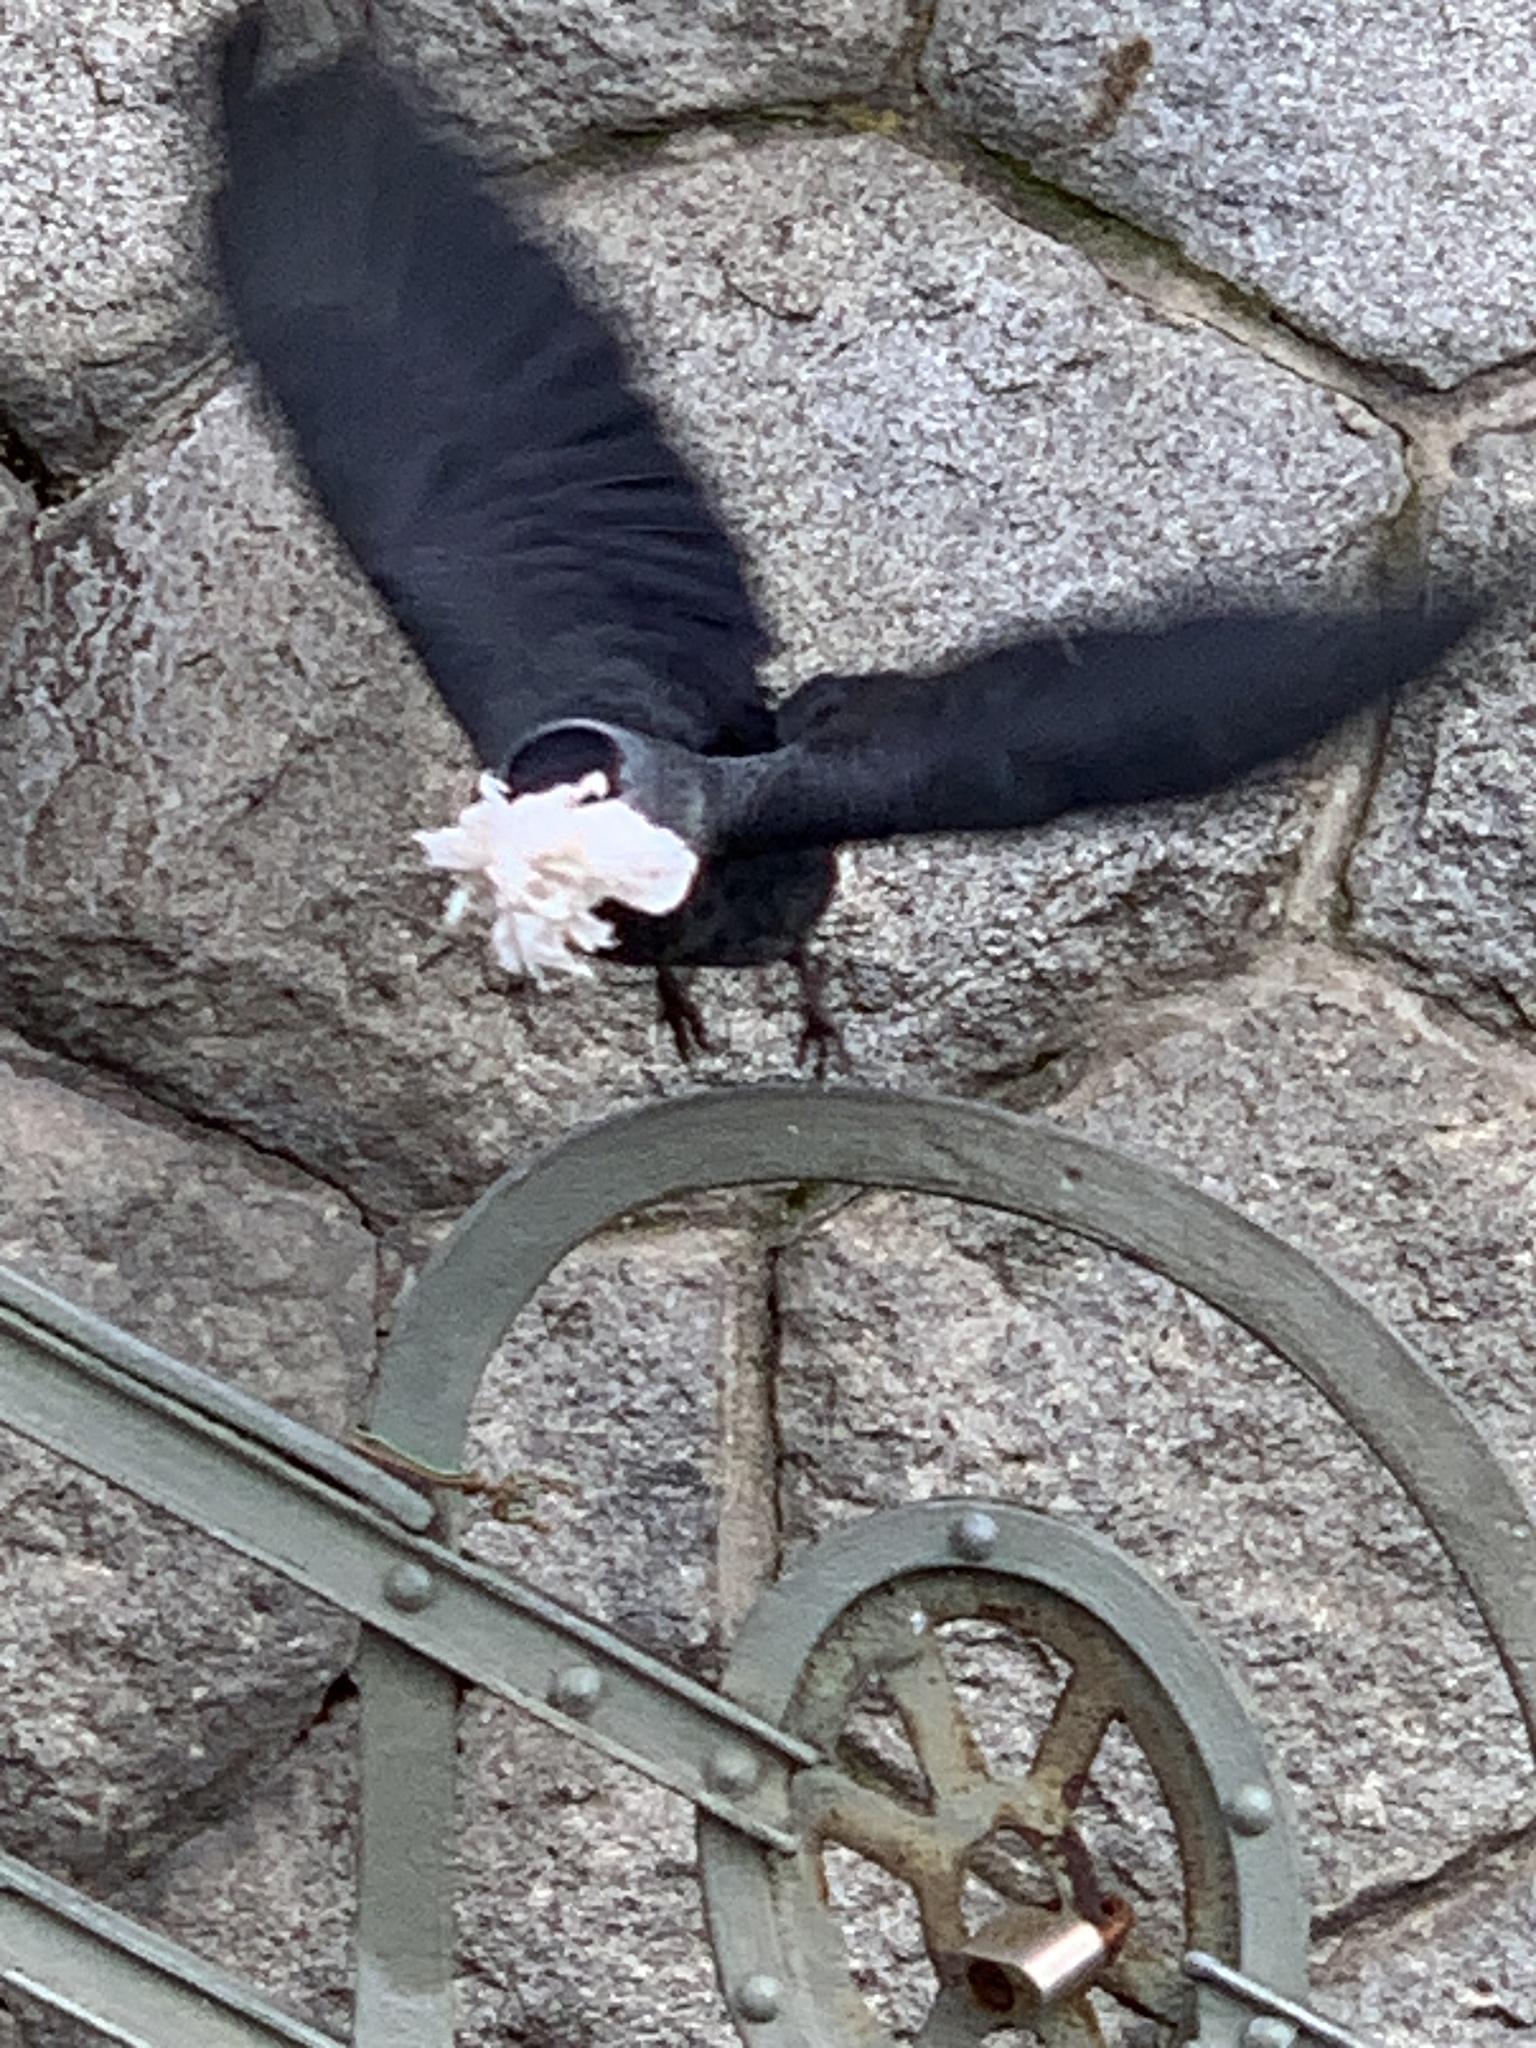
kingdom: Animalia
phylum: Chordata
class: Aves
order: Passeriformes
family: Corvidae
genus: Coloeus
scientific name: Coloeus monedula
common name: Western jackdaw
